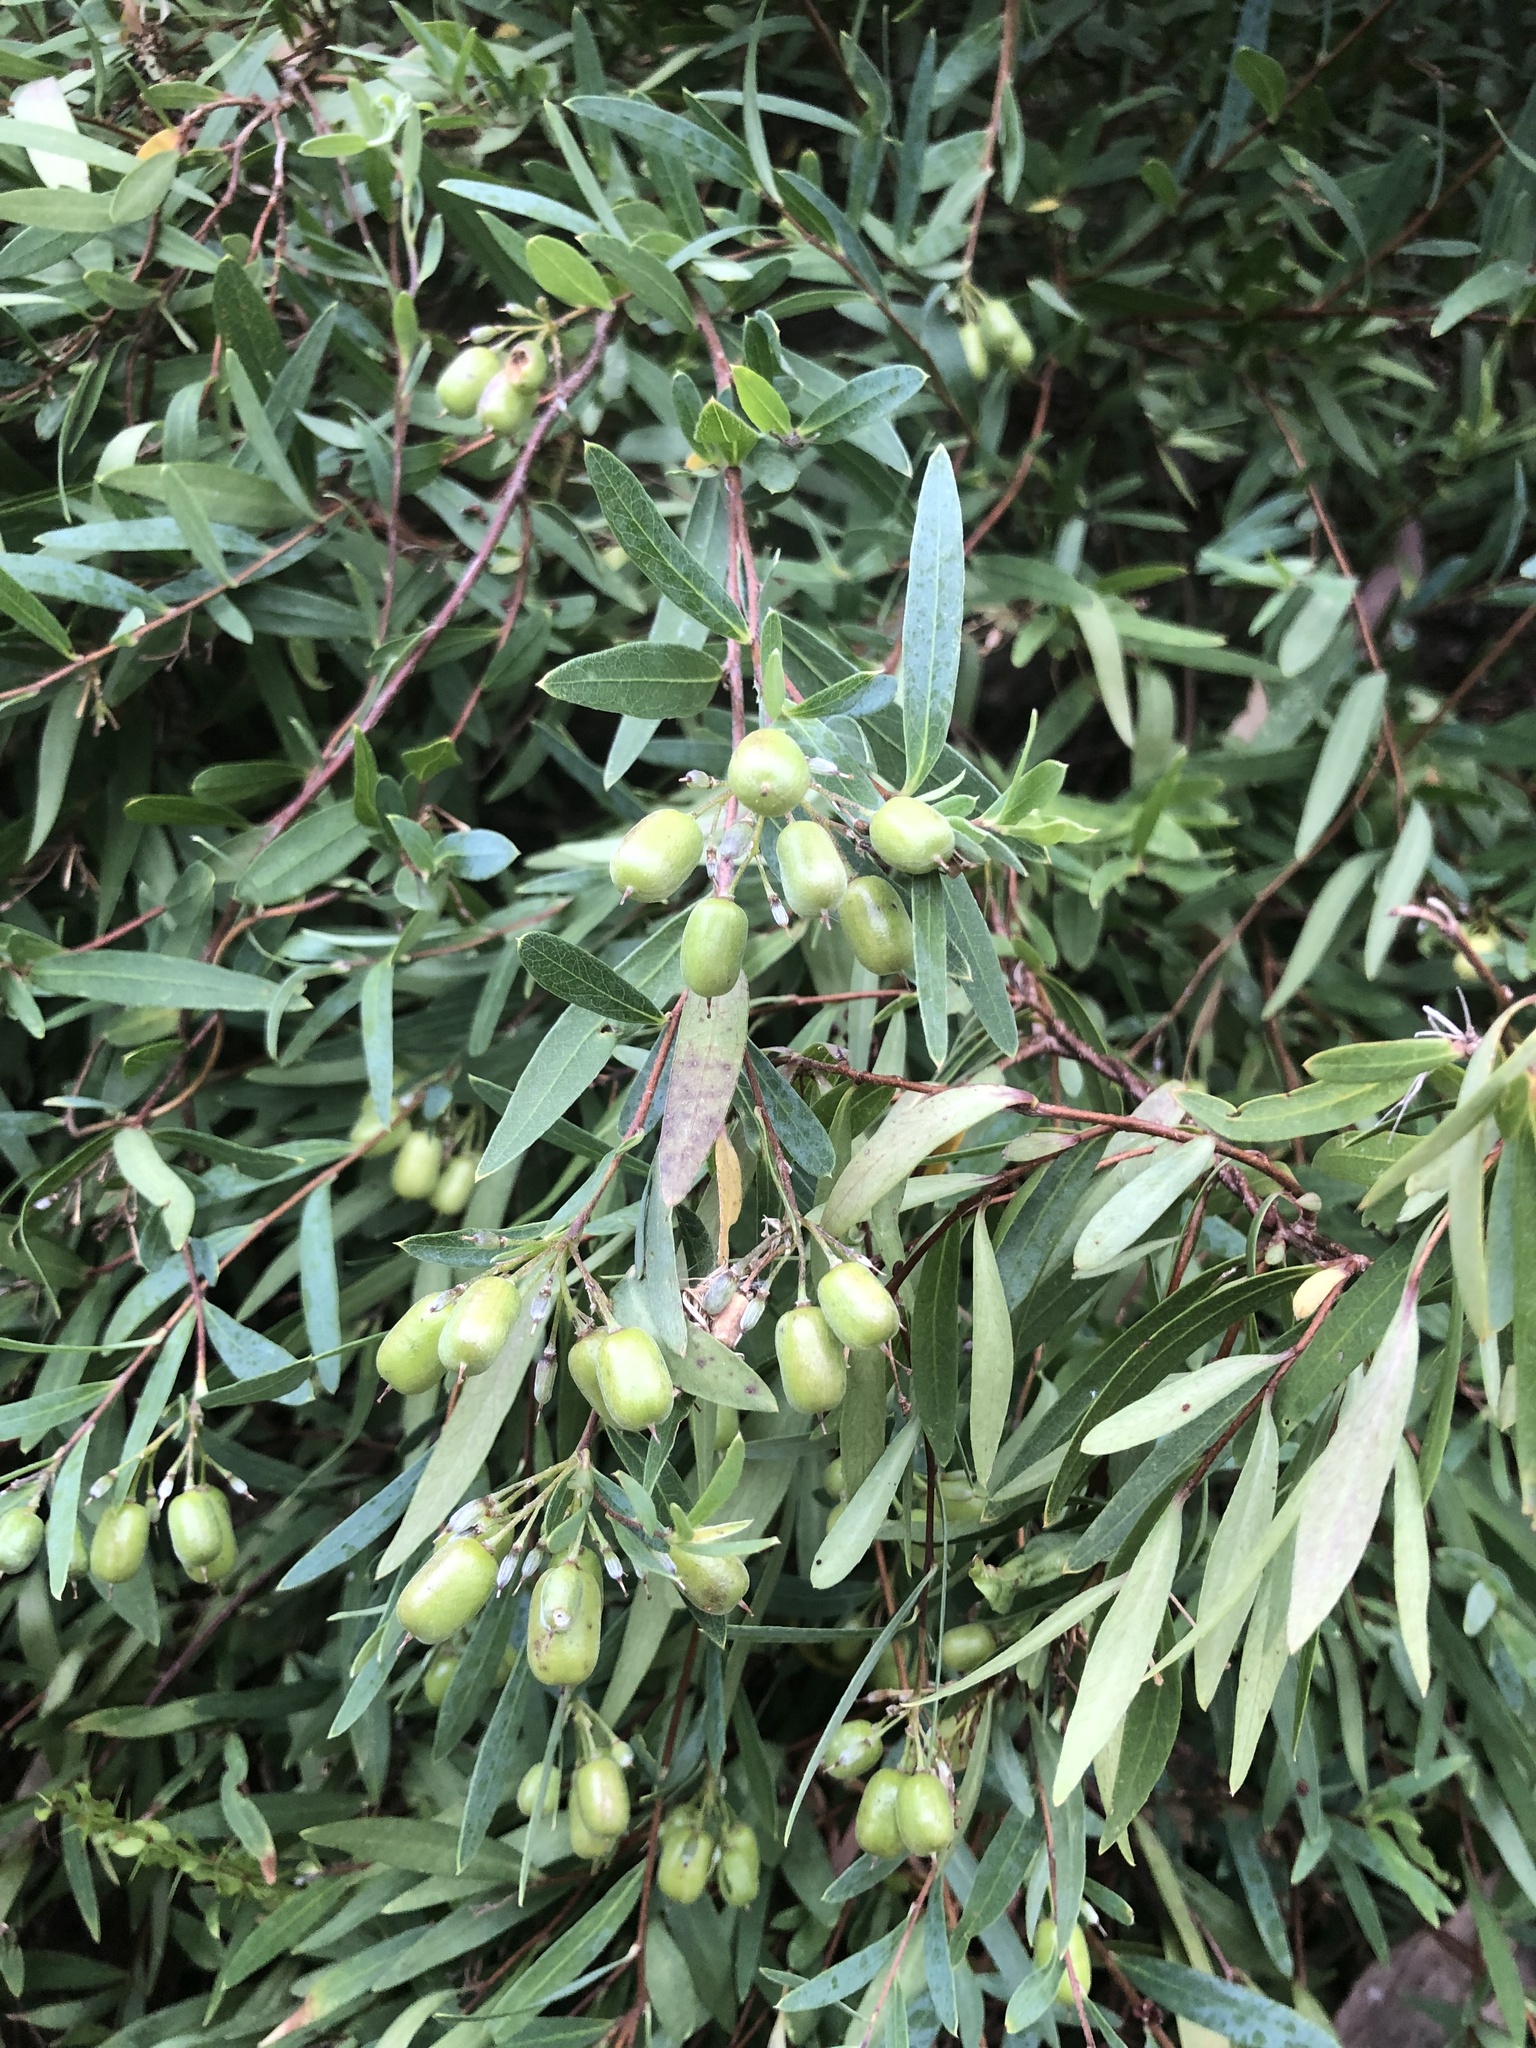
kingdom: Plantae
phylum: Tracheophyta
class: Magnoliopsida
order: Apiales
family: Pittosporaceae
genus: Billardiera
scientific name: Billardiera cymosa
